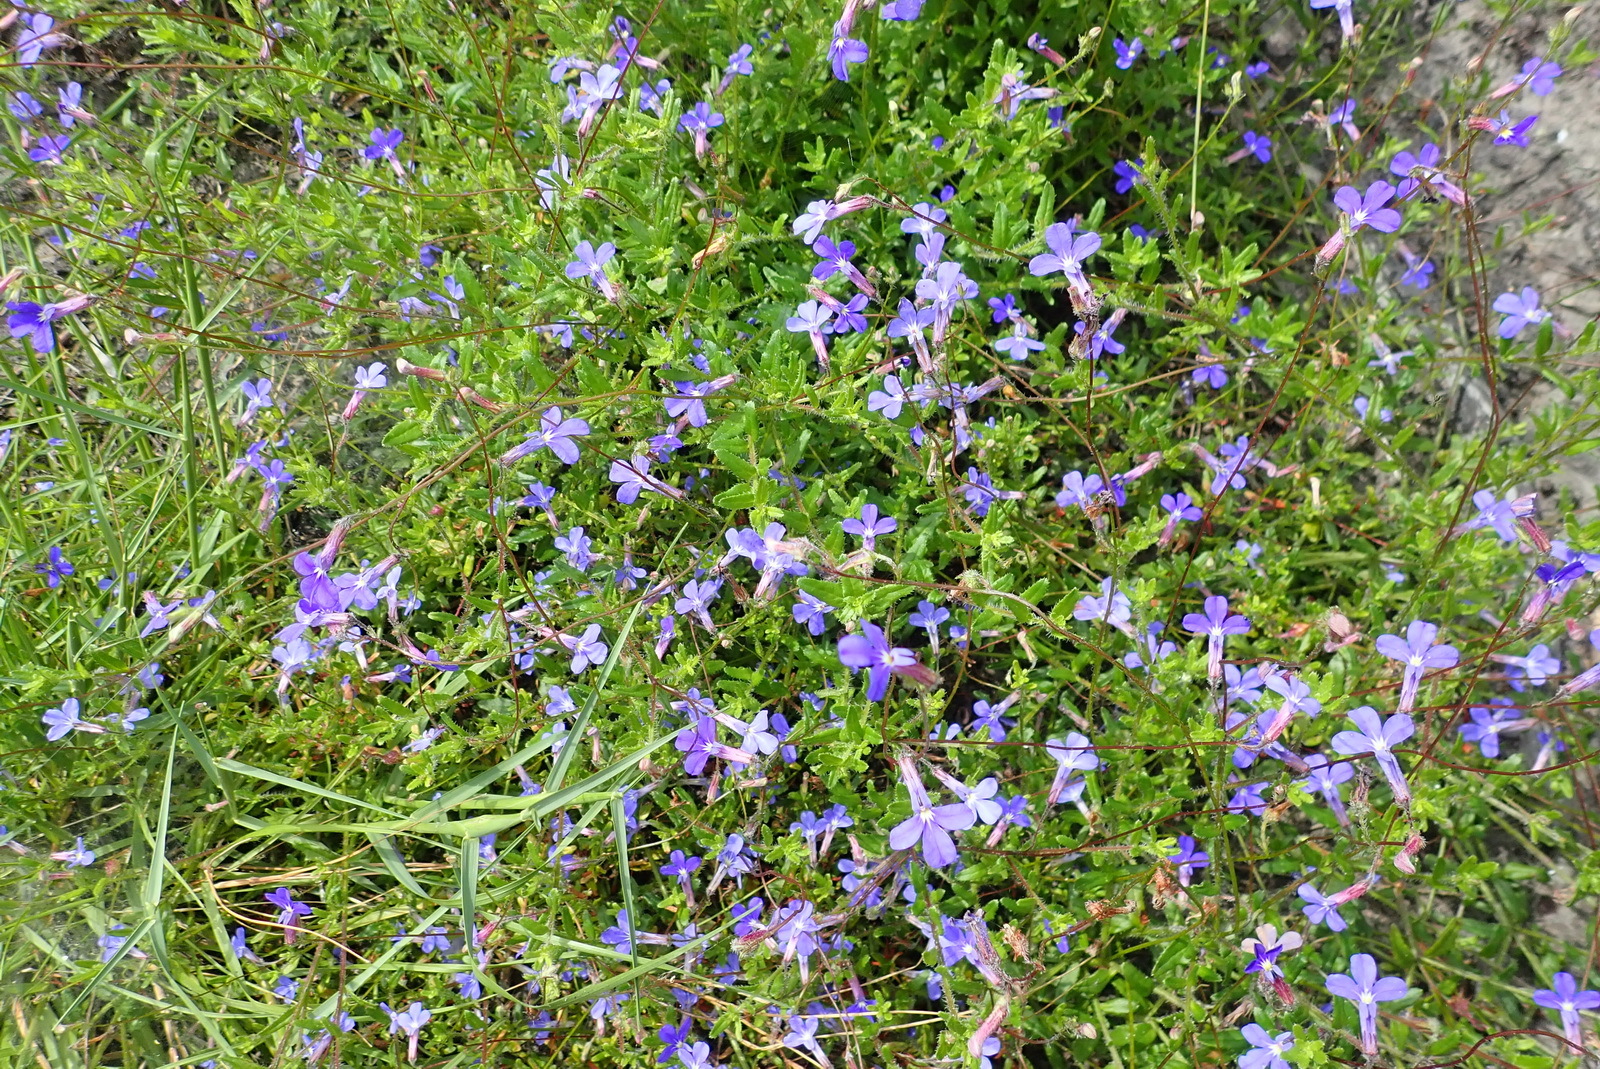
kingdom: Plantae
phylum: Tracheophyta
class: Magnoliopsida
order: Asterales
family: Campanulaceae
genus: Lobelia
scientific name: Lobelia neglecta
